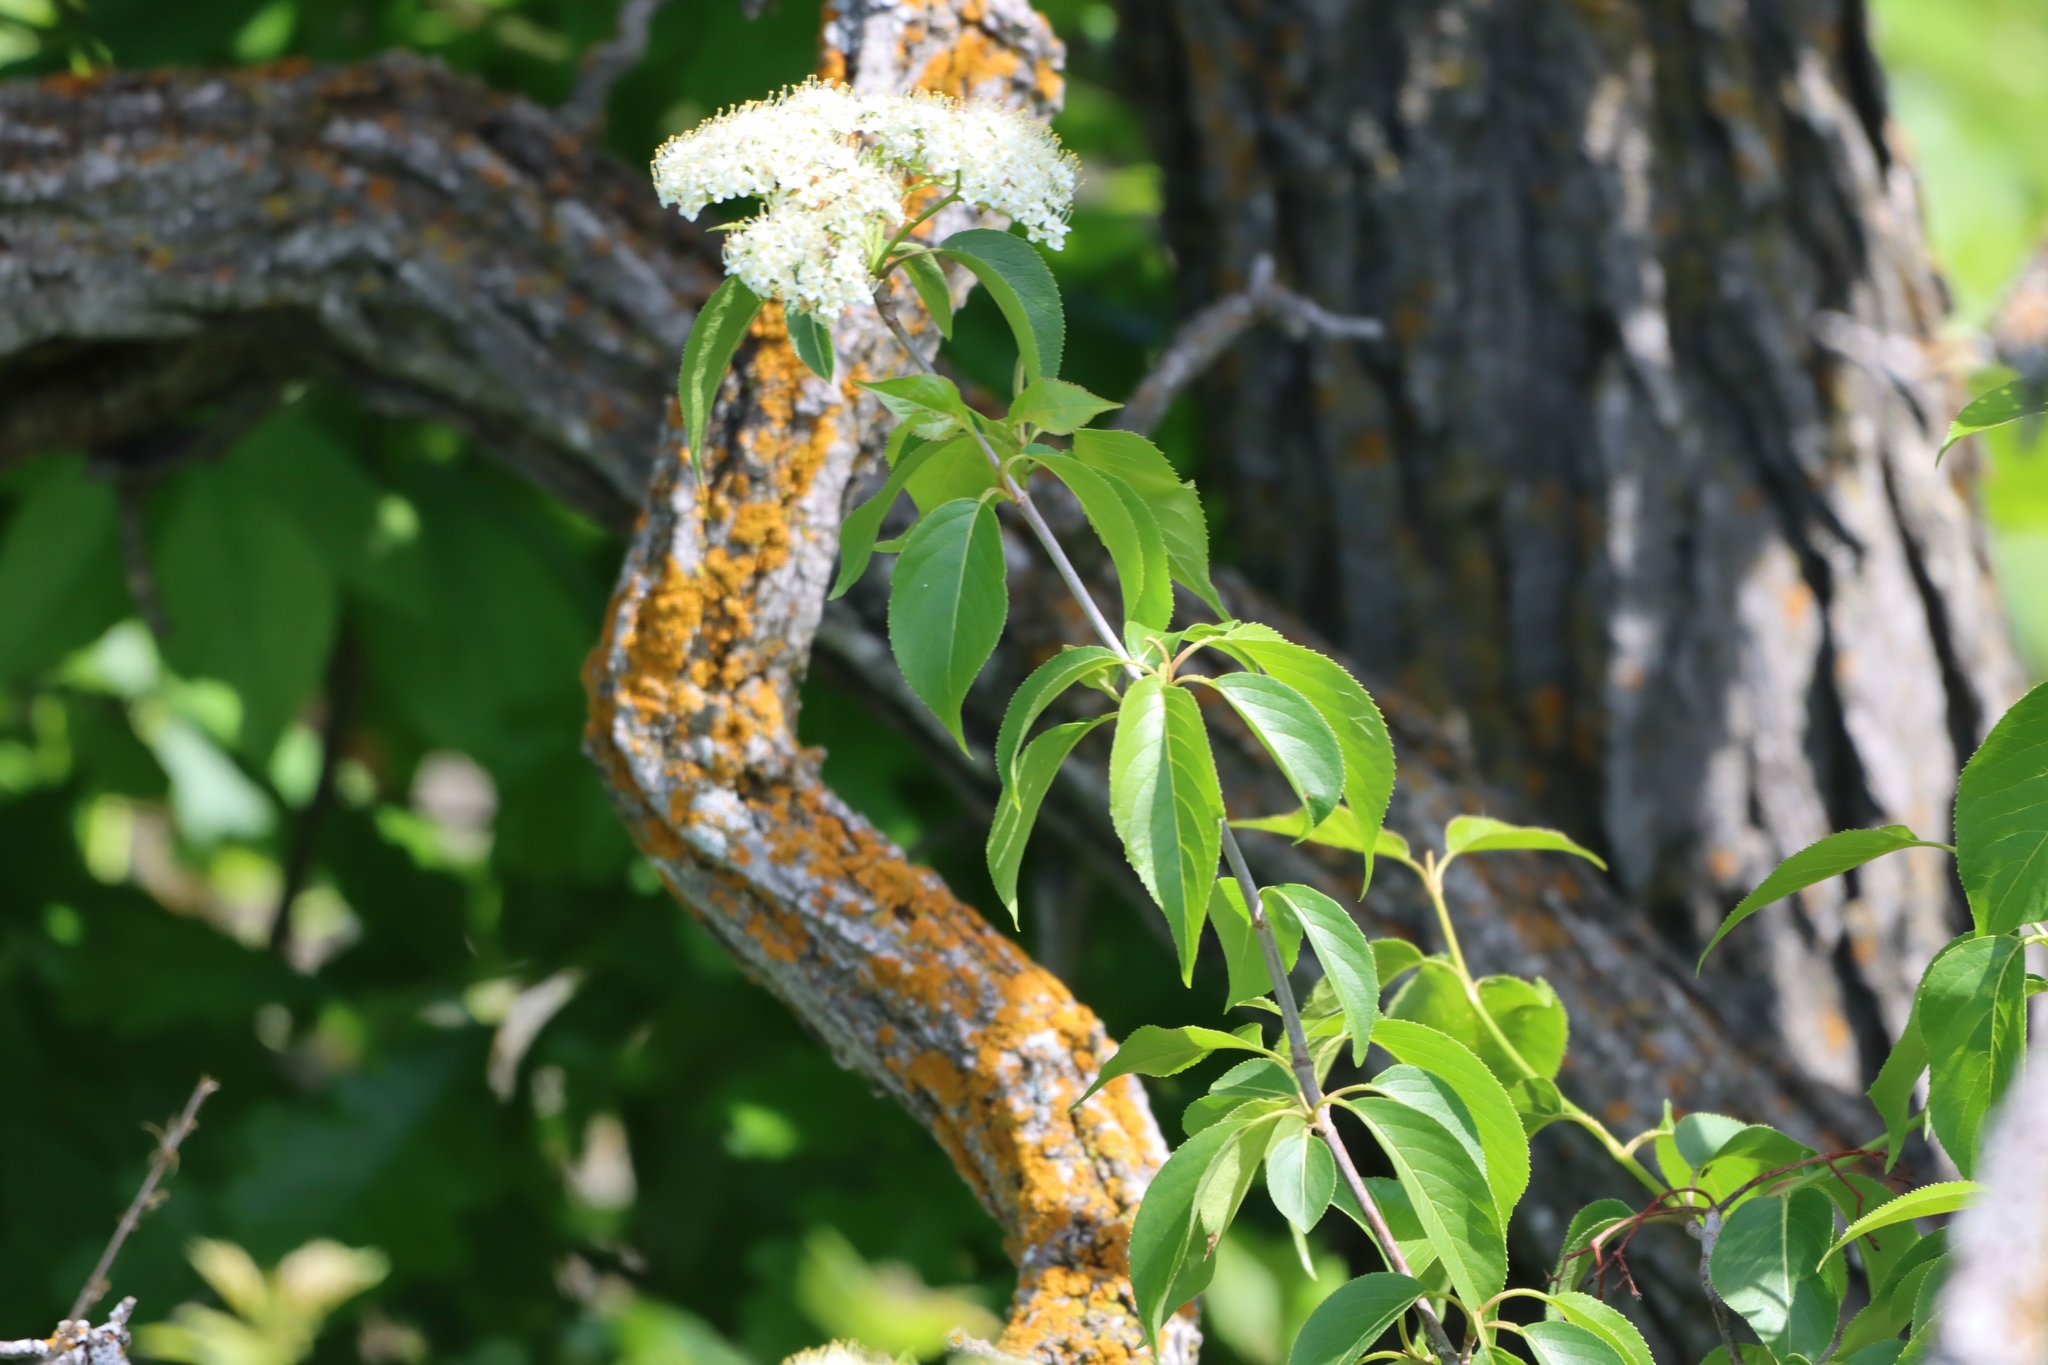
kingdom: Plantae
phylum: Tracheophyta
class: Magnoliopsida
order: Dipsacales
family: Viburnaceae
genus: Viburnum
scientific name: Viburnum lentago
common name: Black haw
